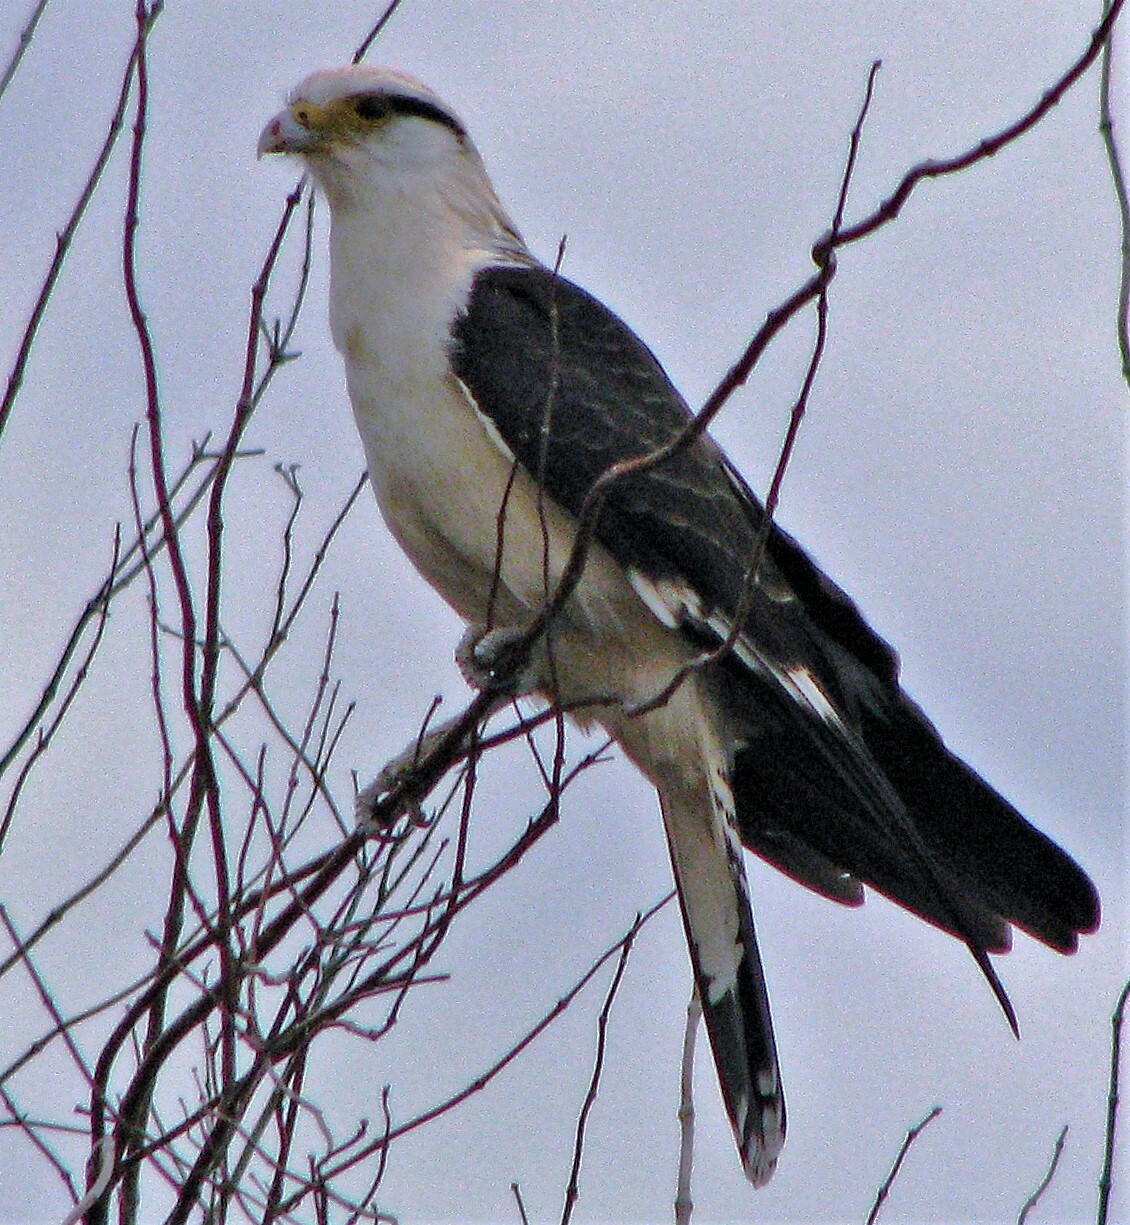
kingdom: Animalia
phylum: Chordata
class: Aves
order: Falconiformes
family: Falconidae
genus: Daptrius
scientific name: Daptrius
